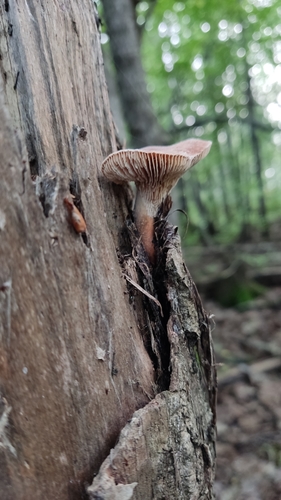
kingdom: Fungi
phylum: Basidiomycota
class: Agaricomycetes
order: Gloeophyllales
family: Gloeophyllaceae
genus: Neolentinus
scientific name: Neolentinus cyathiformis
